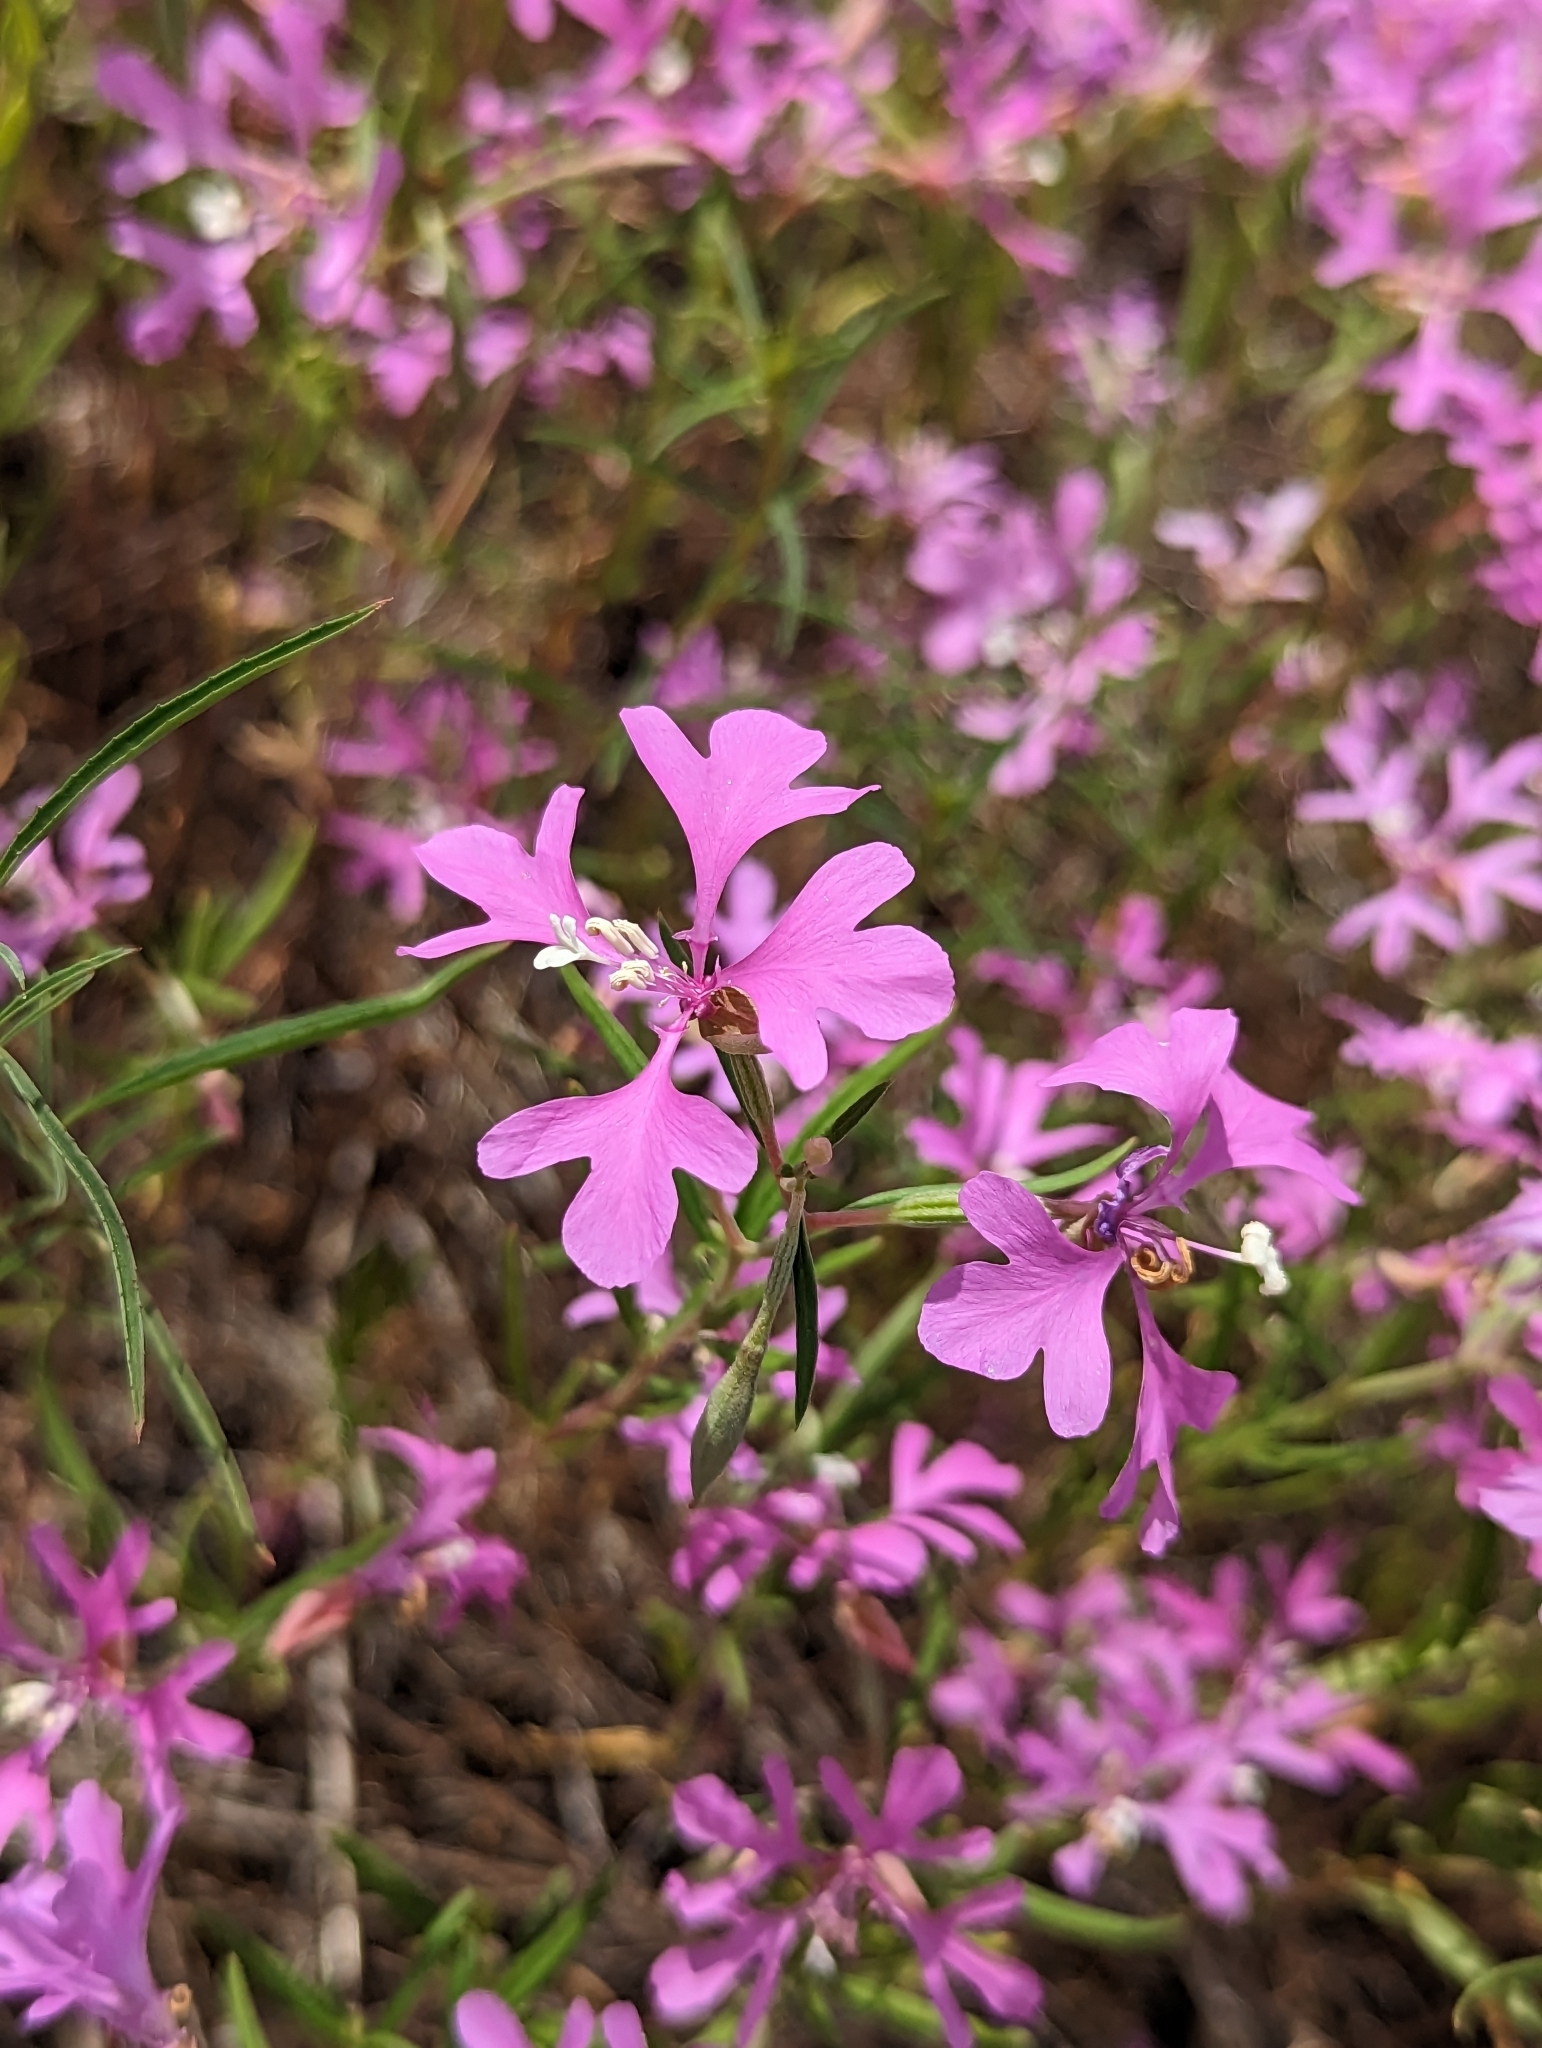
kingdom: Plantae
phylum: Tracheophyta
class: Magnoliopsida
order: Myrtales
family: Onagraceae
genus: Clarkia
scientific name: Clarkia pulchella
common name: Deer horn
